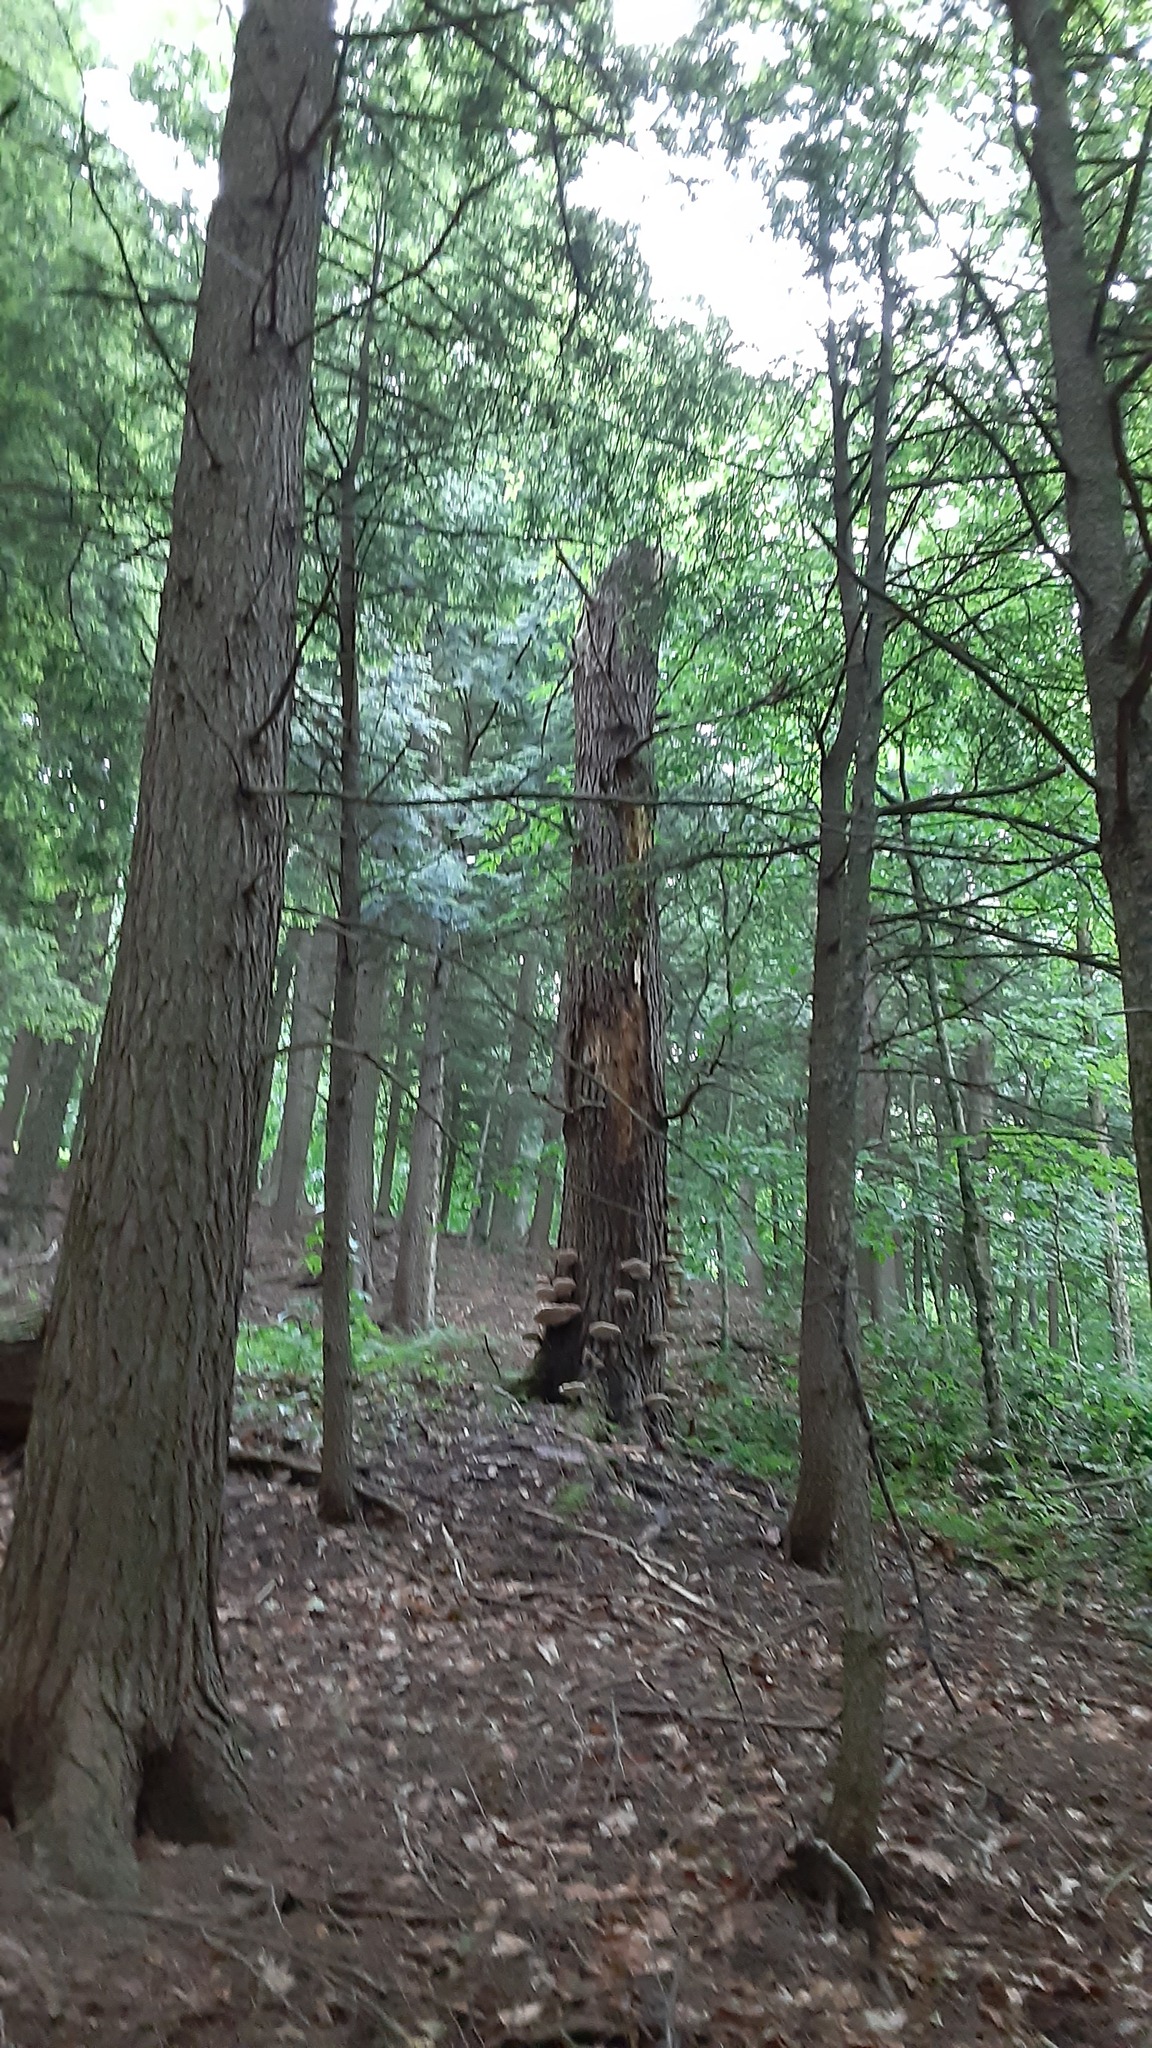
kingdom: Fungi
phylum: Basidiomycota
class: Agaricomycetes
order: Polyporales
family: Polyporaceae
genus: Ganoderma
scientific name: Ganoderma tsugae
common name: Hemlock varnish shelf
